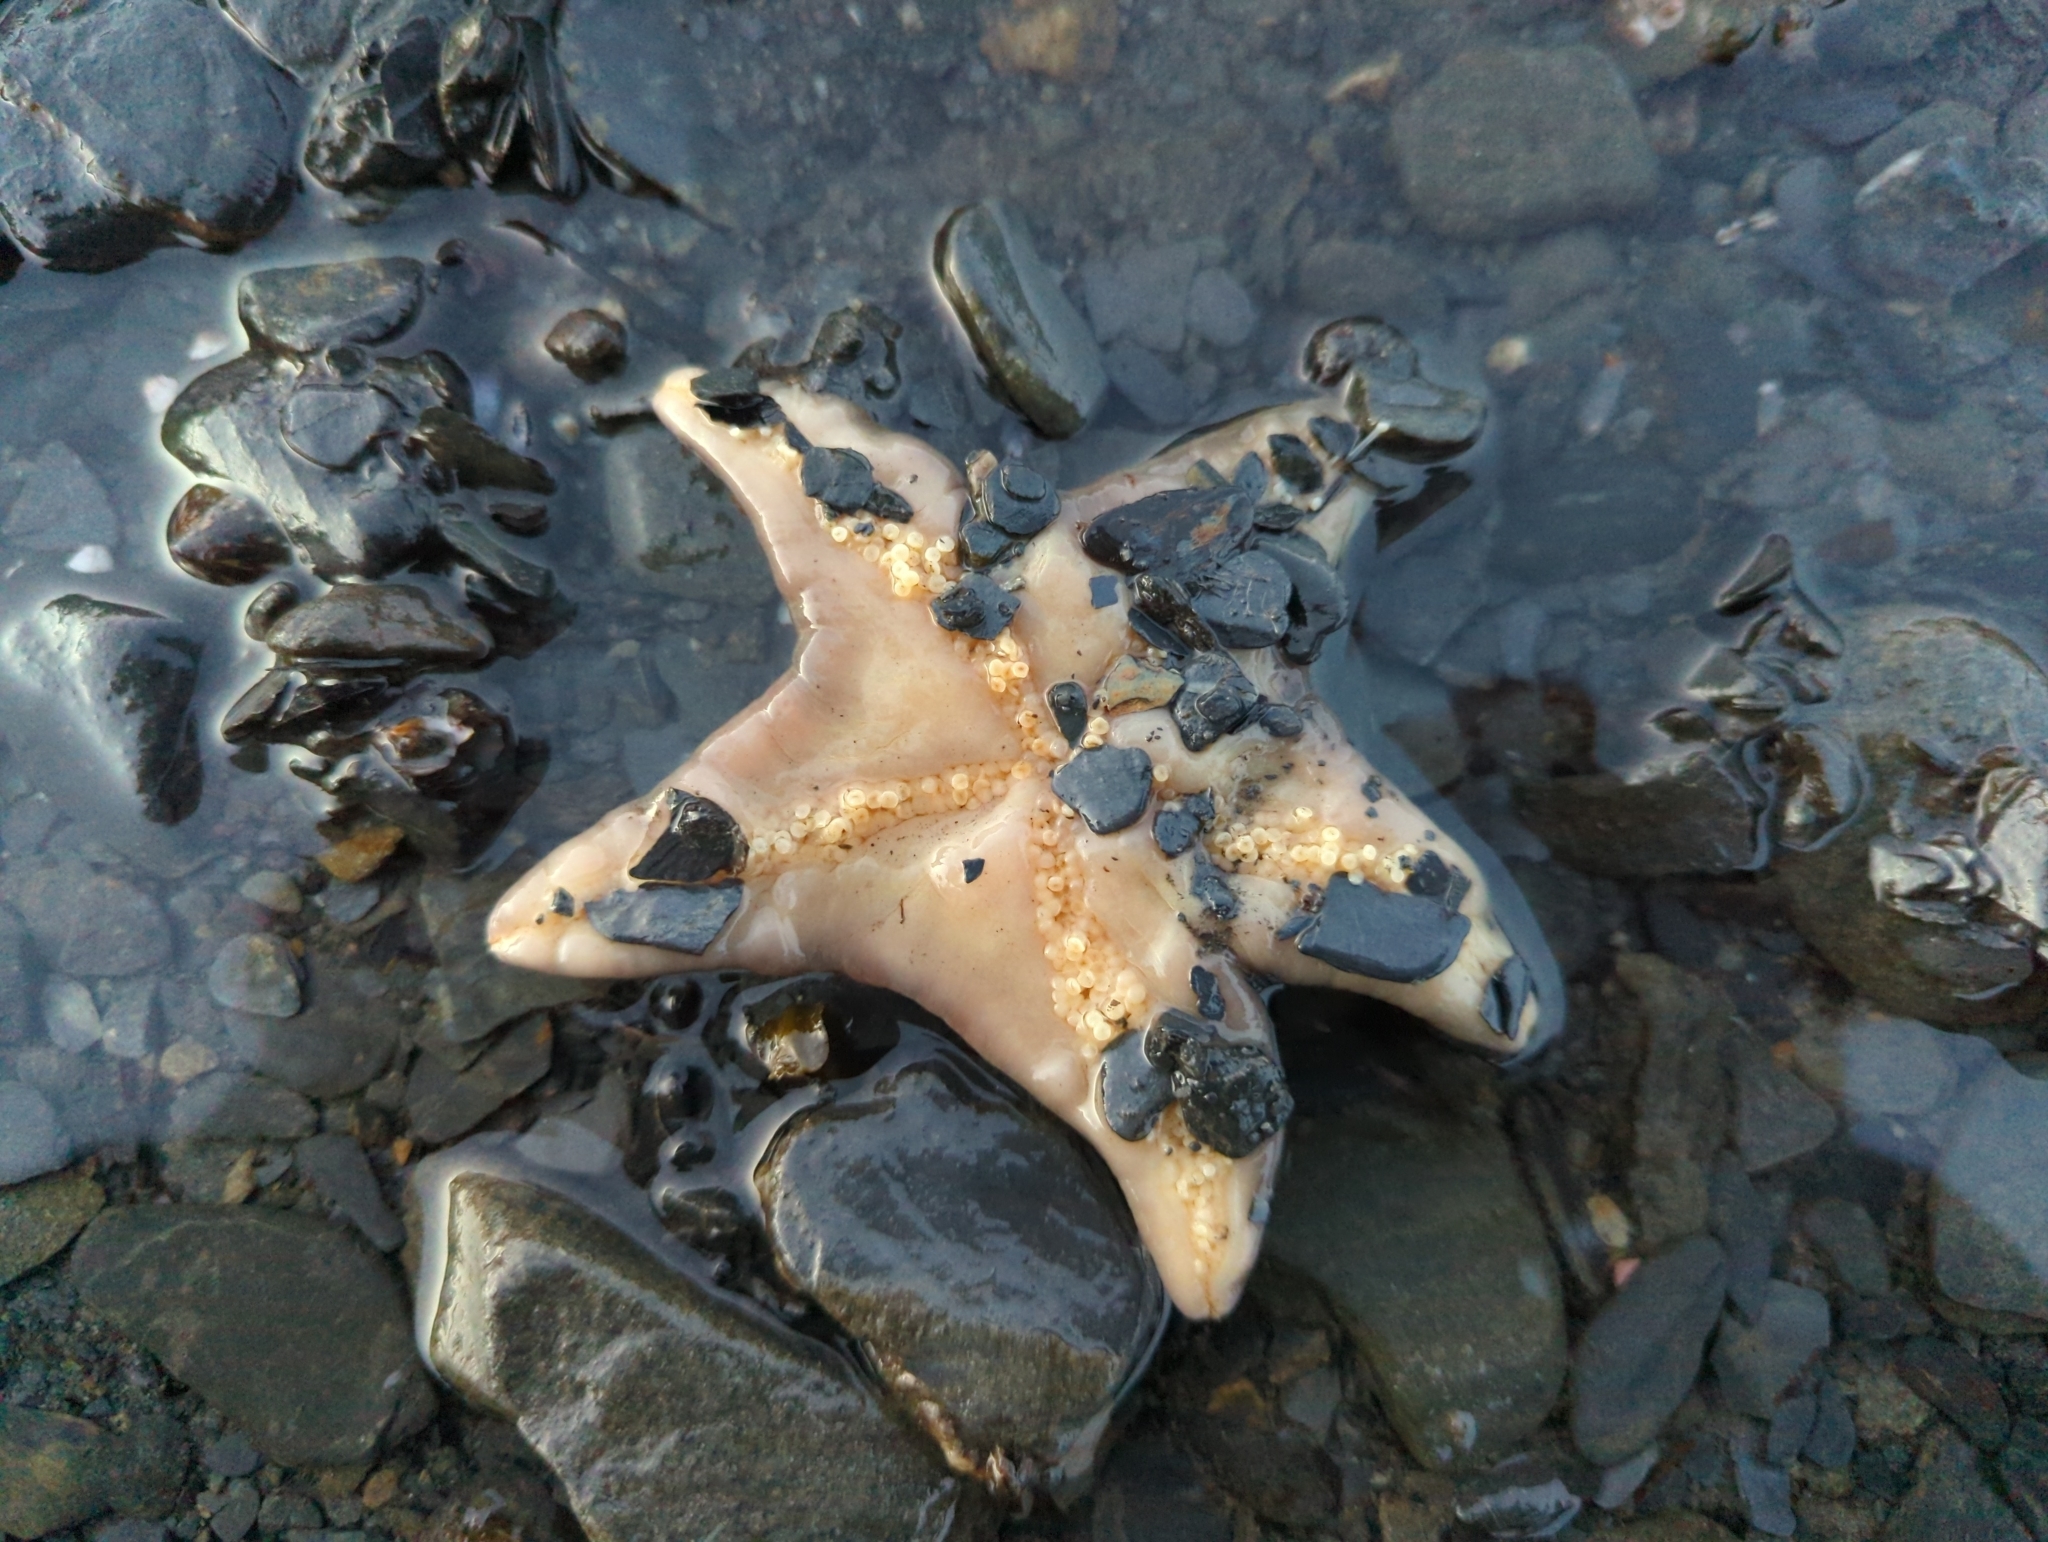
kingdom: Animalia
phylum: Echinodermata
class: Asteroidea
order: Valvatida
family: Asteropseidae
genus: Dermasterias
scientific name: Dermasterias imbricata
